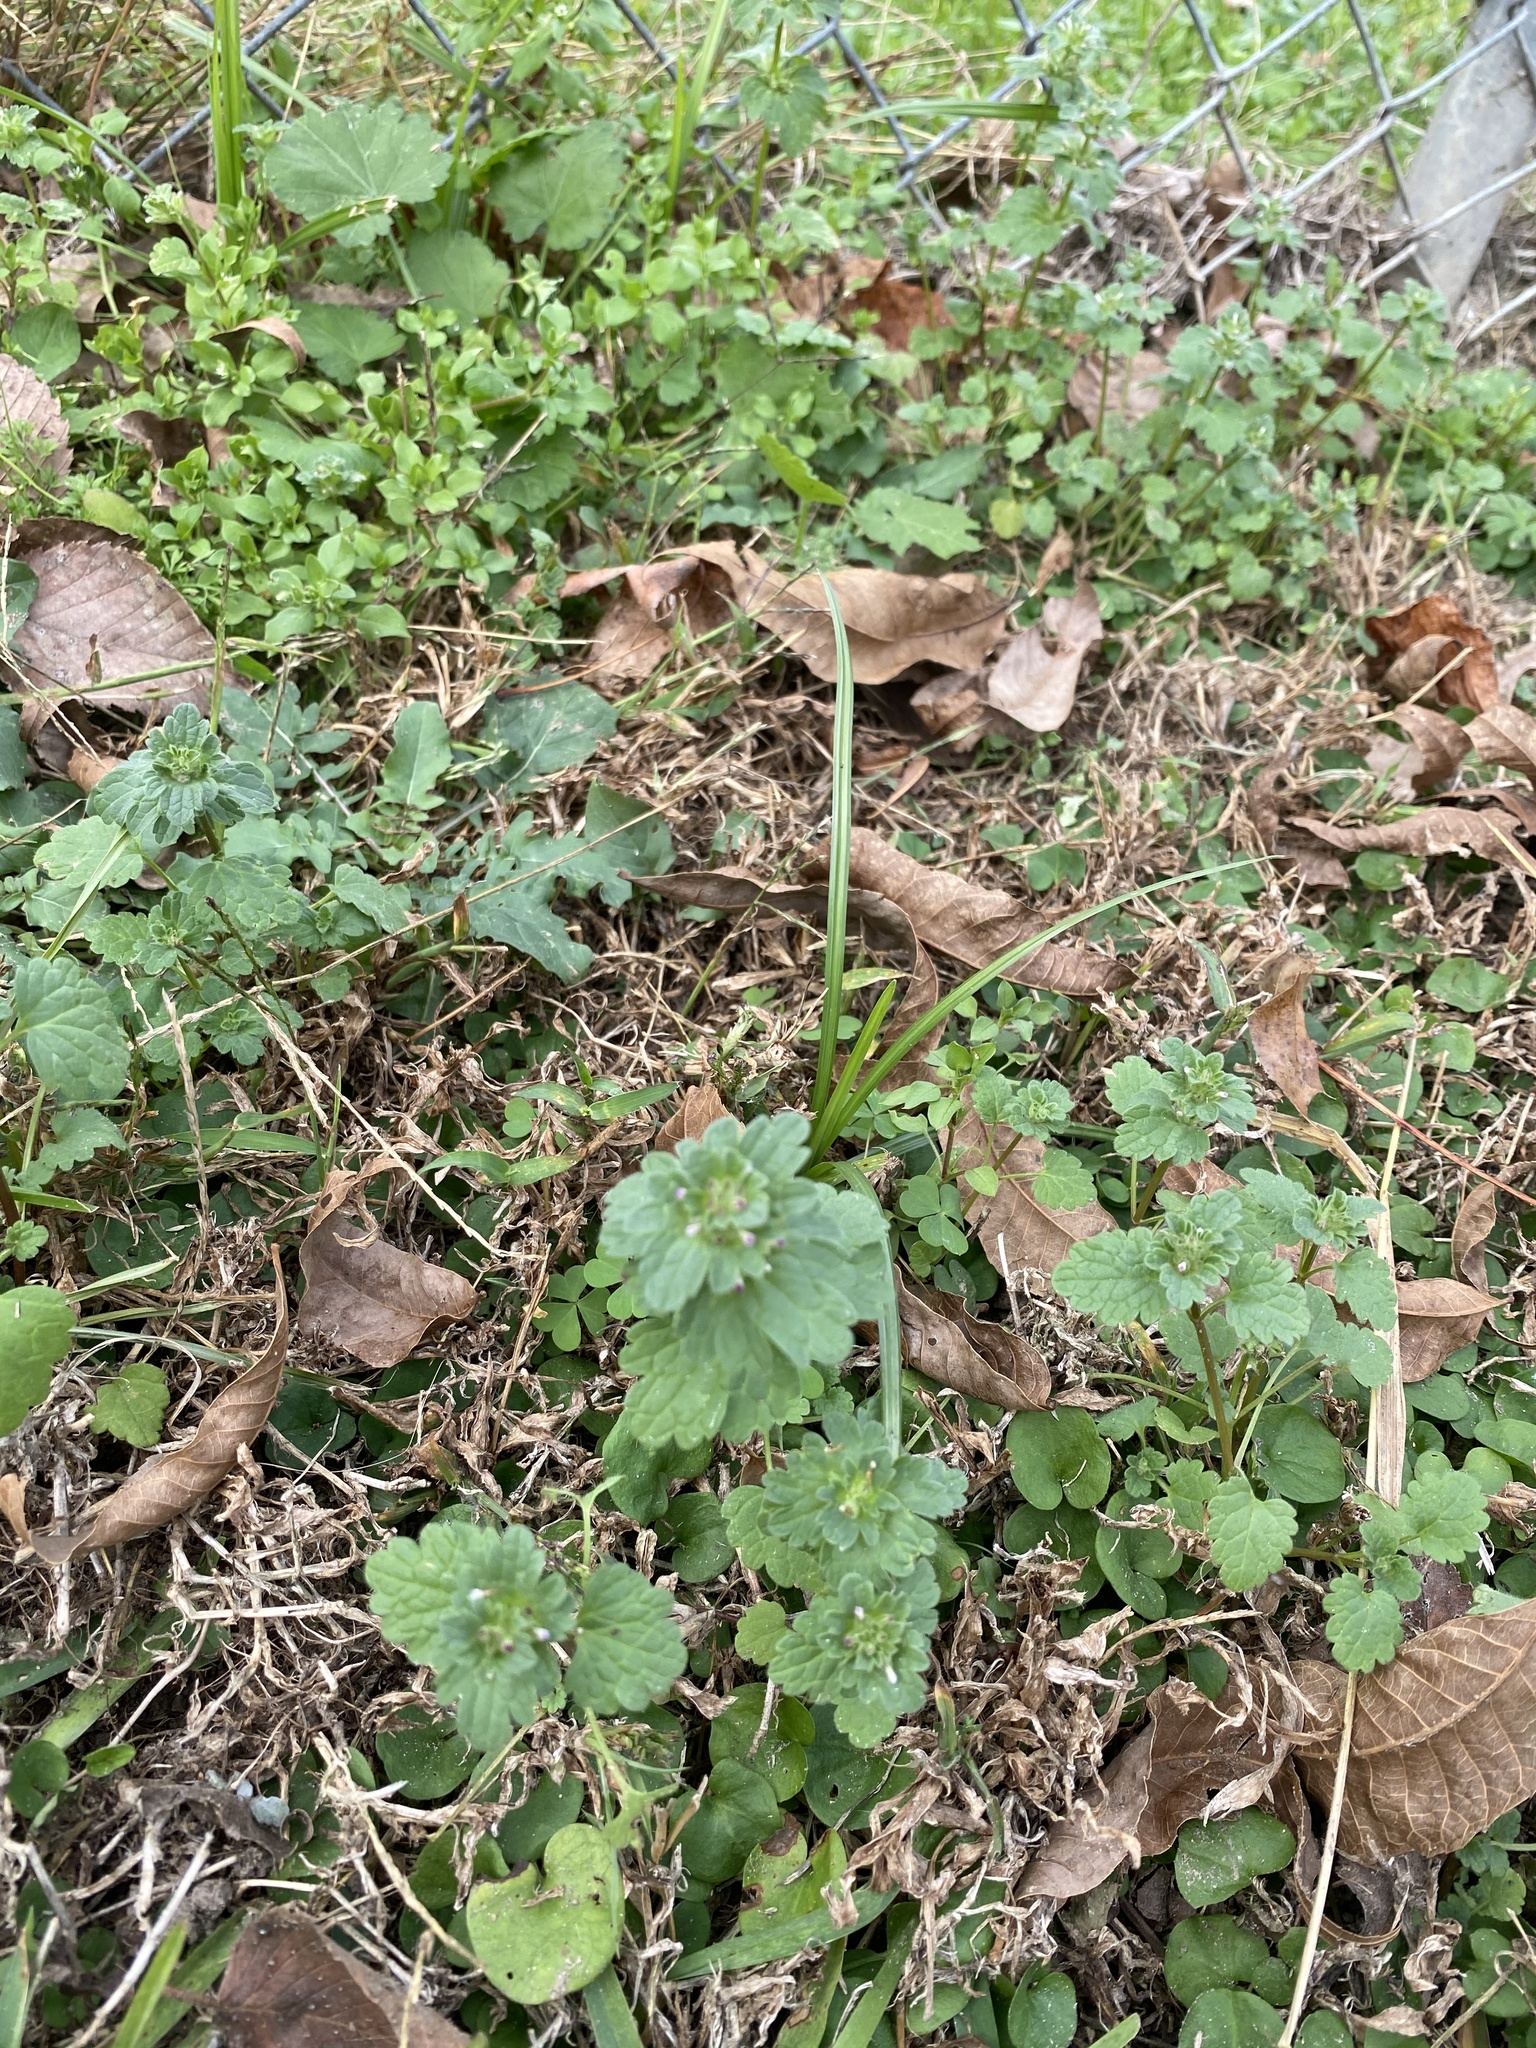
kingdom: Plantae
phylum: Tracheophyta
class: Magnoliopsida
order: Geraniales
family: Geraniaceae
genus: Geranium
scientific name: Geranium carolinianum
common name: Carolina crane's-bill
